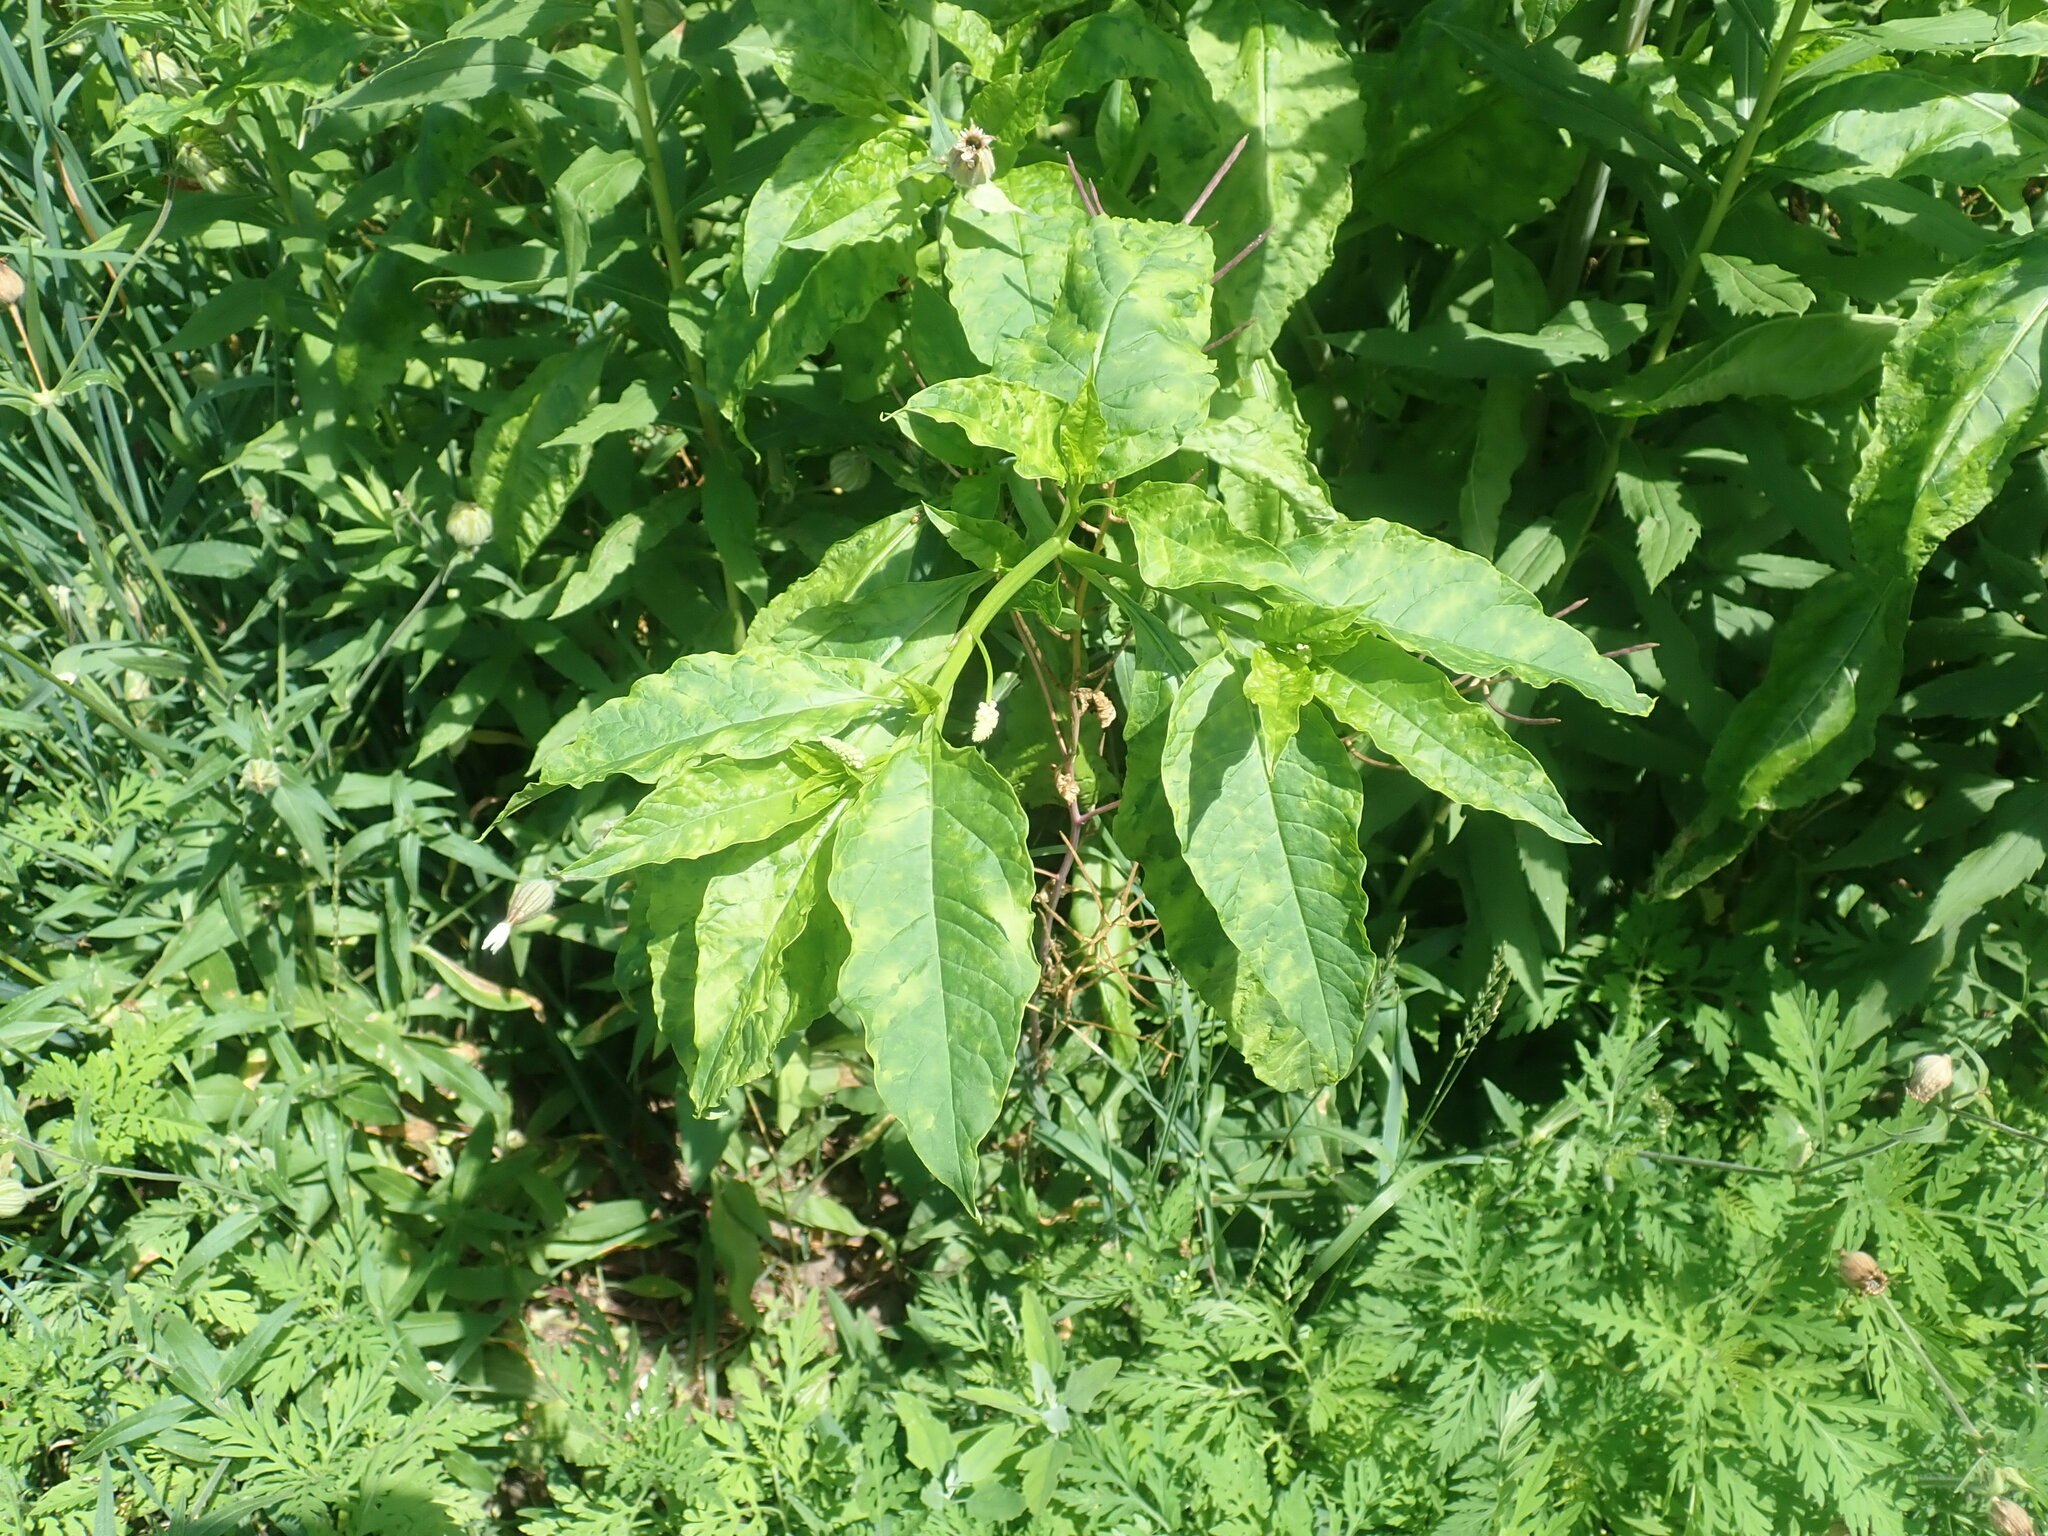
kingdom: Viruses
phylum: Pisuviricota
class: Stelpaviricetes
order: Patatavirales
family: Potyviridae
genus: Potyvirus
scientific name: Potyvirus Pokeweed mosaic virus
